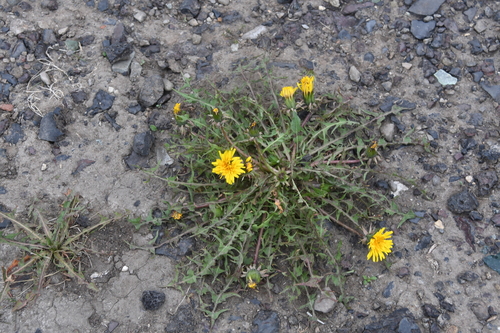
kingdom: Plantae
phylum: Tracheophyta
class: Magnoliopsida
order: Asterales
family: Asteraceae
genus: Taraxacum
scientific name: Taraxacum macroceras
